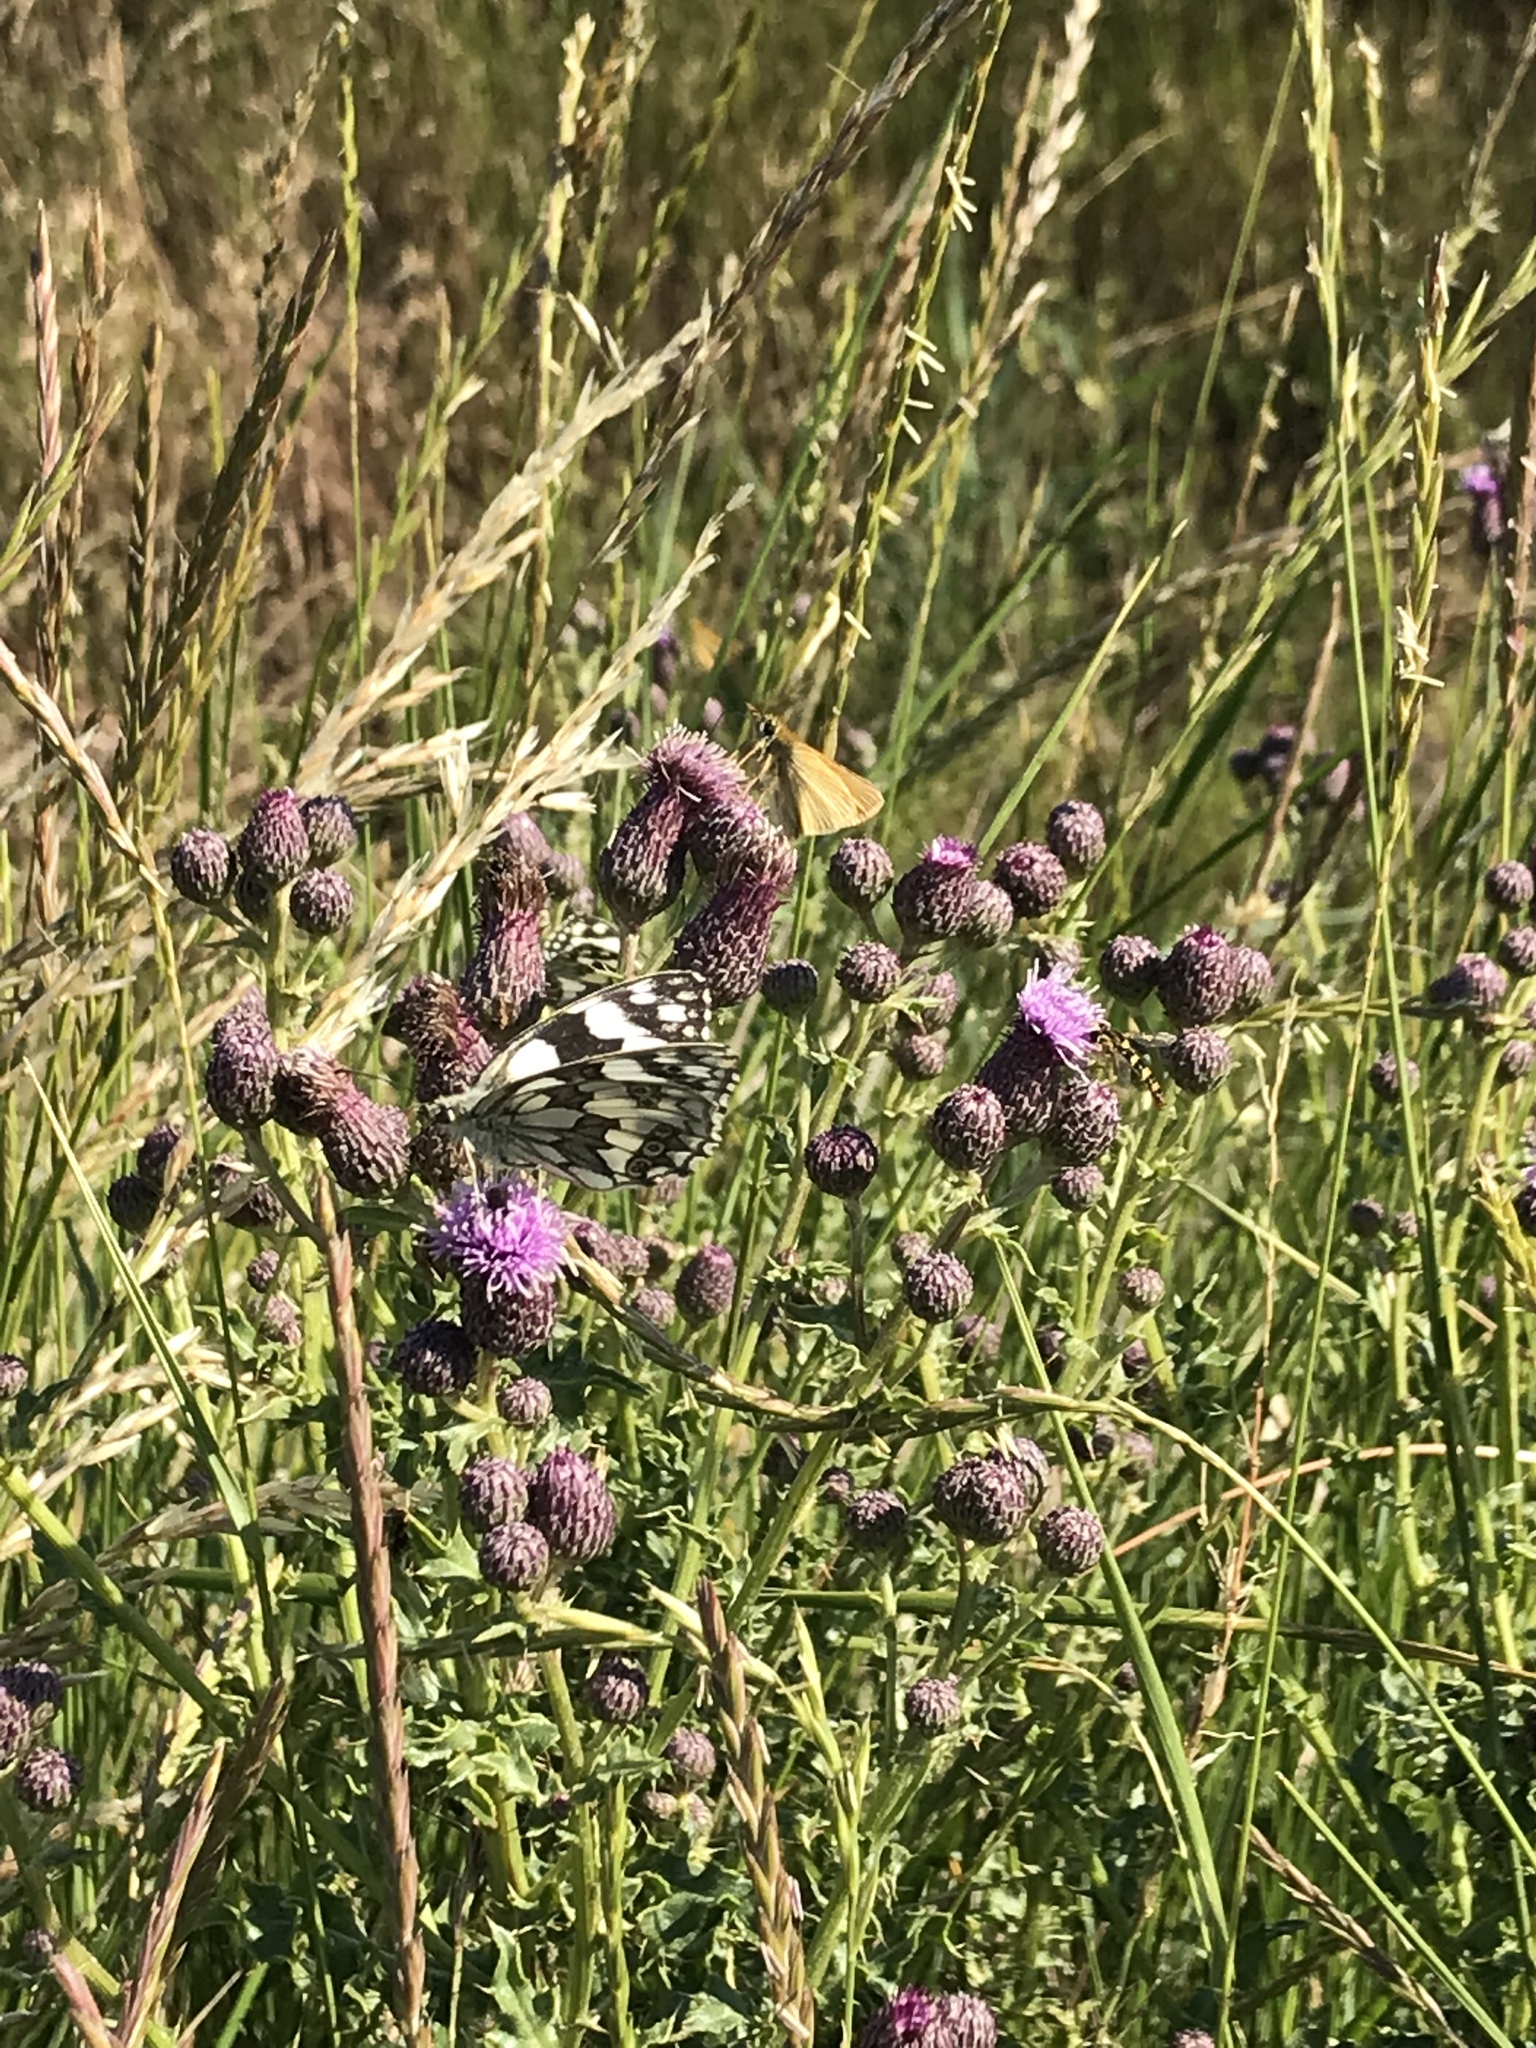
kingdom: Animalia
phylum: Arthropoda
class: Insecta
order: Lepidoptera
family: Nymphalidae
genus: Melanargia
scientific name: Melanargia galathea
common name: Marbled white
